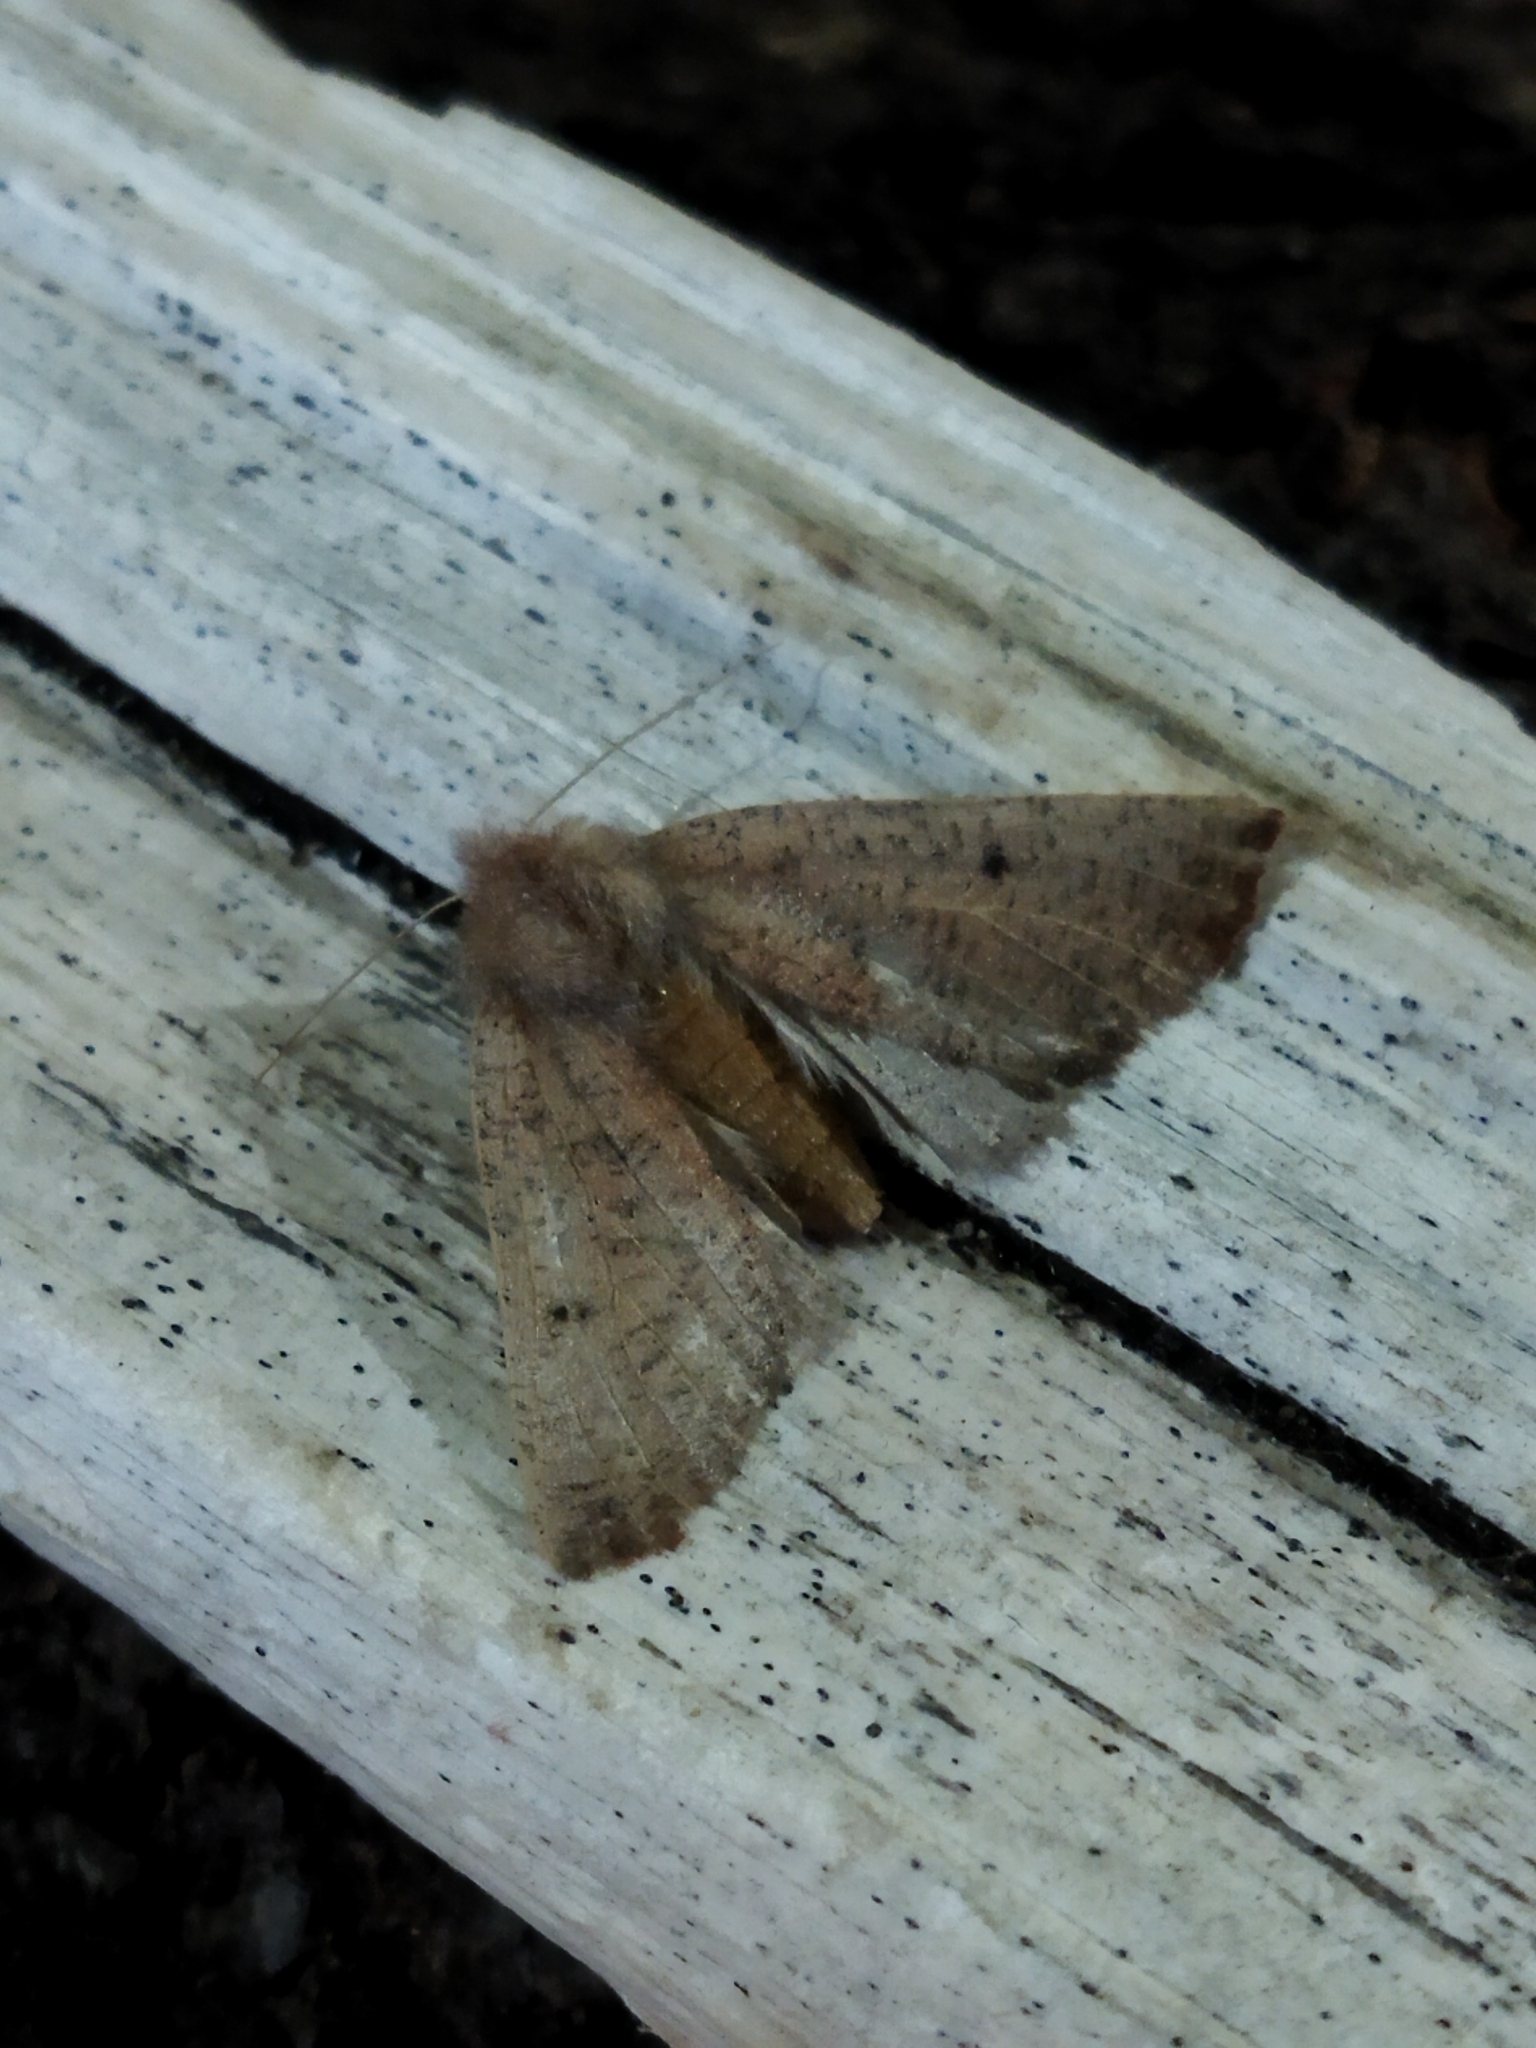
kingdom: Animalia
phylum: Arthropoda
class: Insecta
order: Lepidoptera
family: Geometridae
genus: Dasycorsa
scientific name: Dasycorsa modesta
